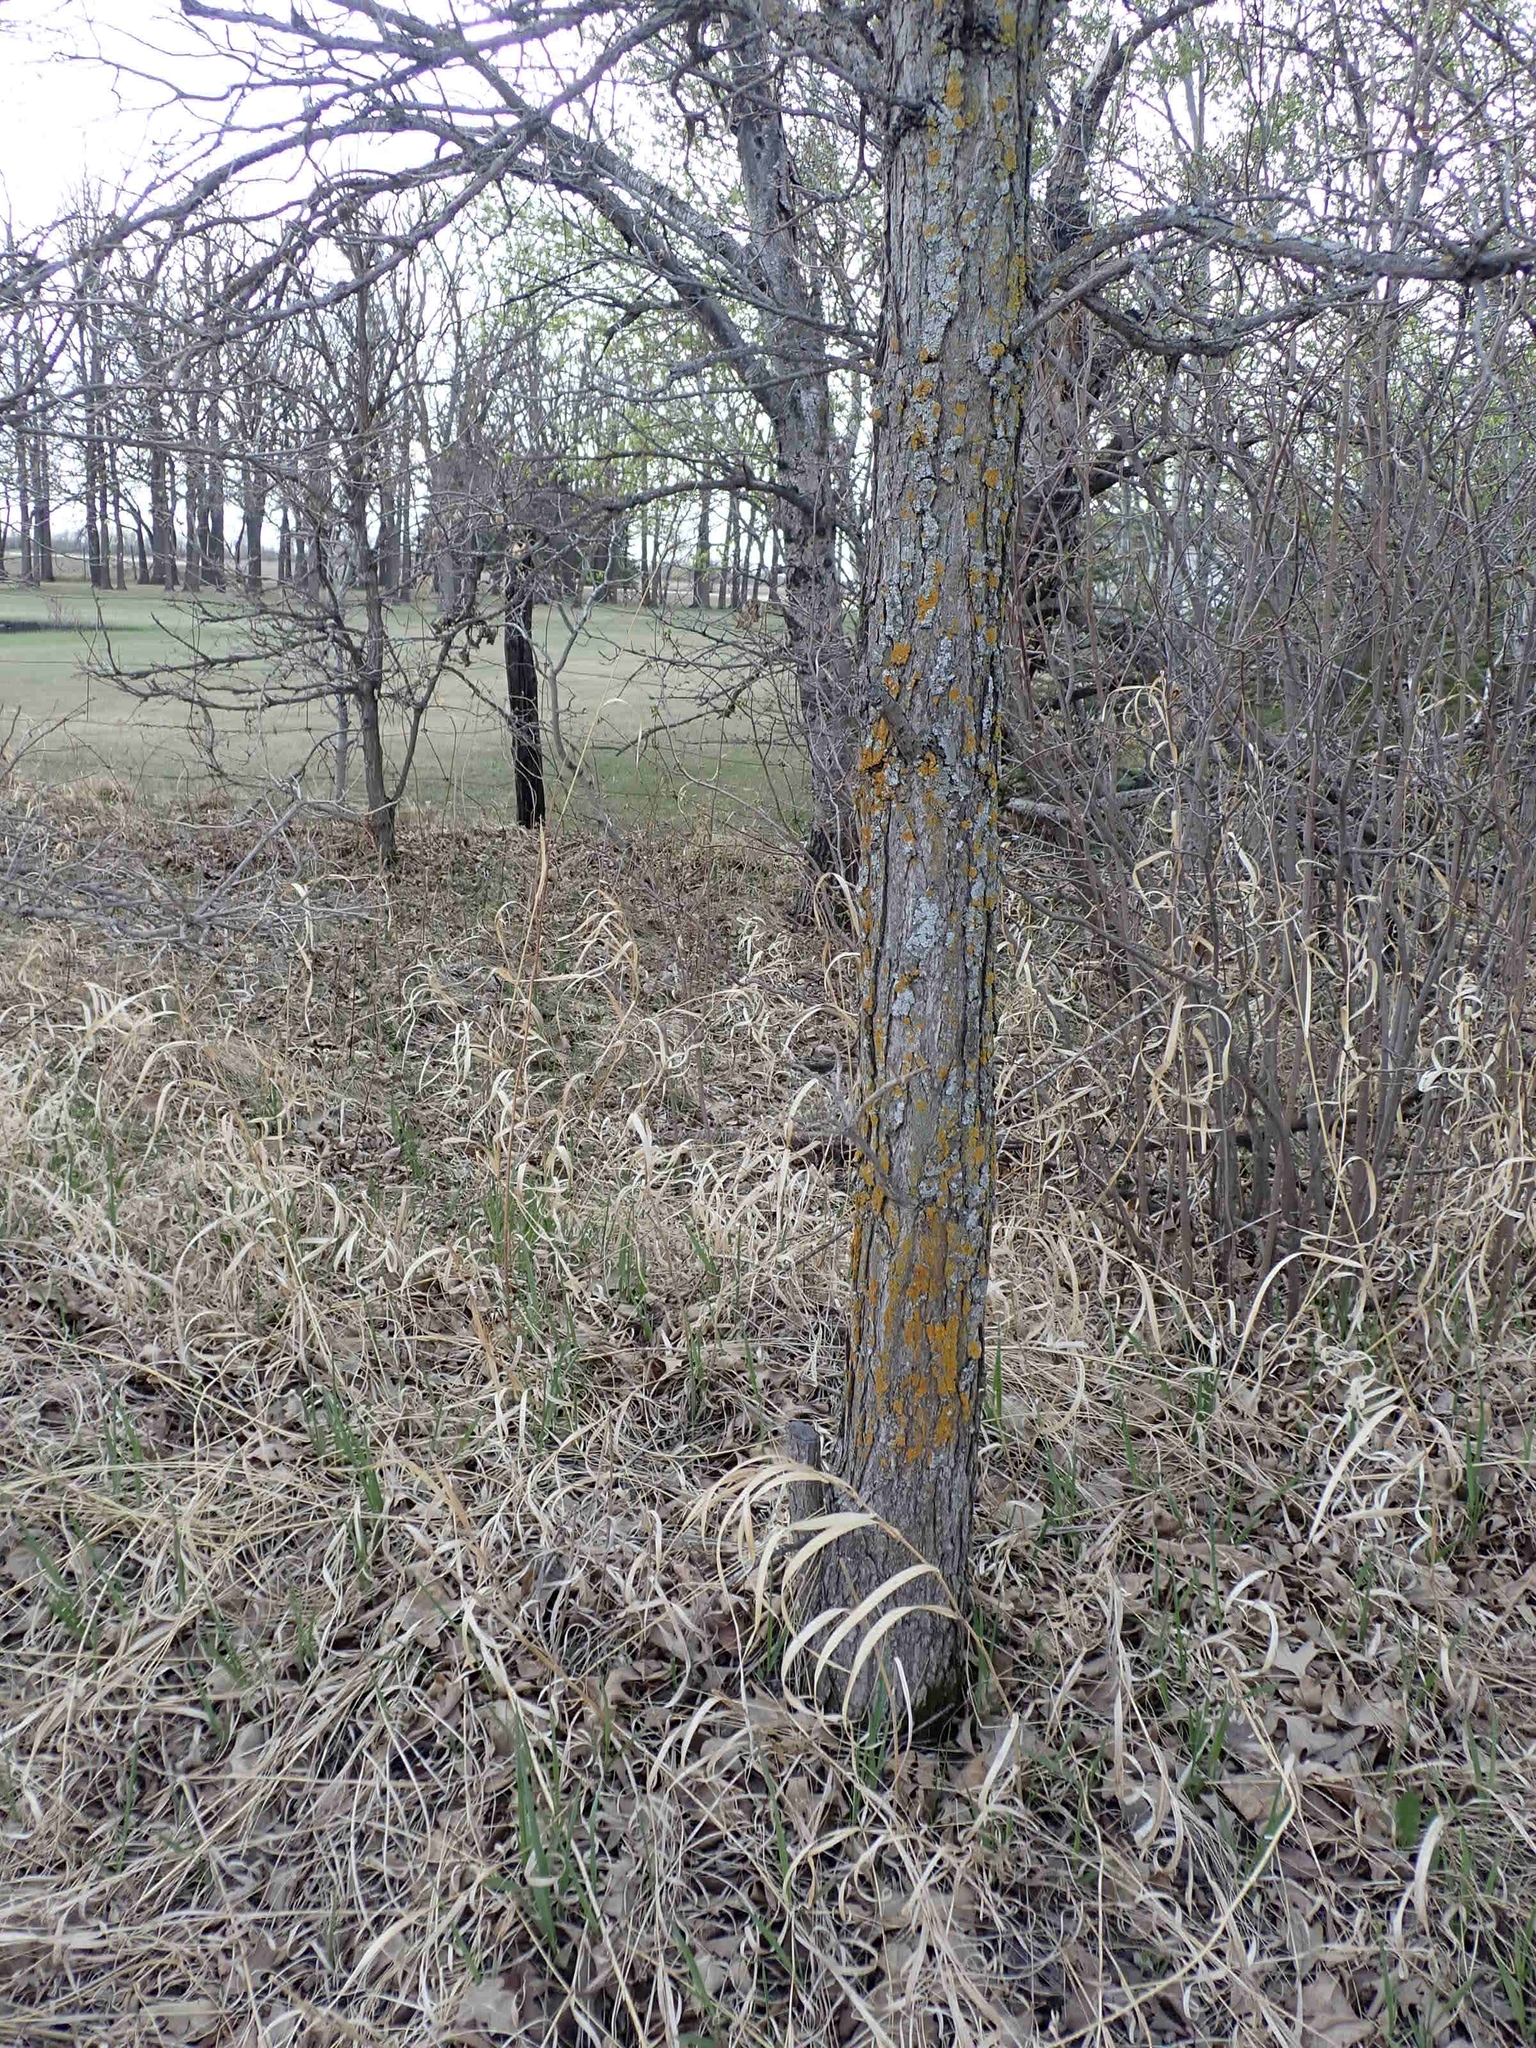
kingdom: Plantae
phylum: Tracheophyta
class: Magnoliopsida
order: Fagales
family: Fagaceae
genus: Quercus
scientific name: Quercus macrocarpa
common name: Bur oak
